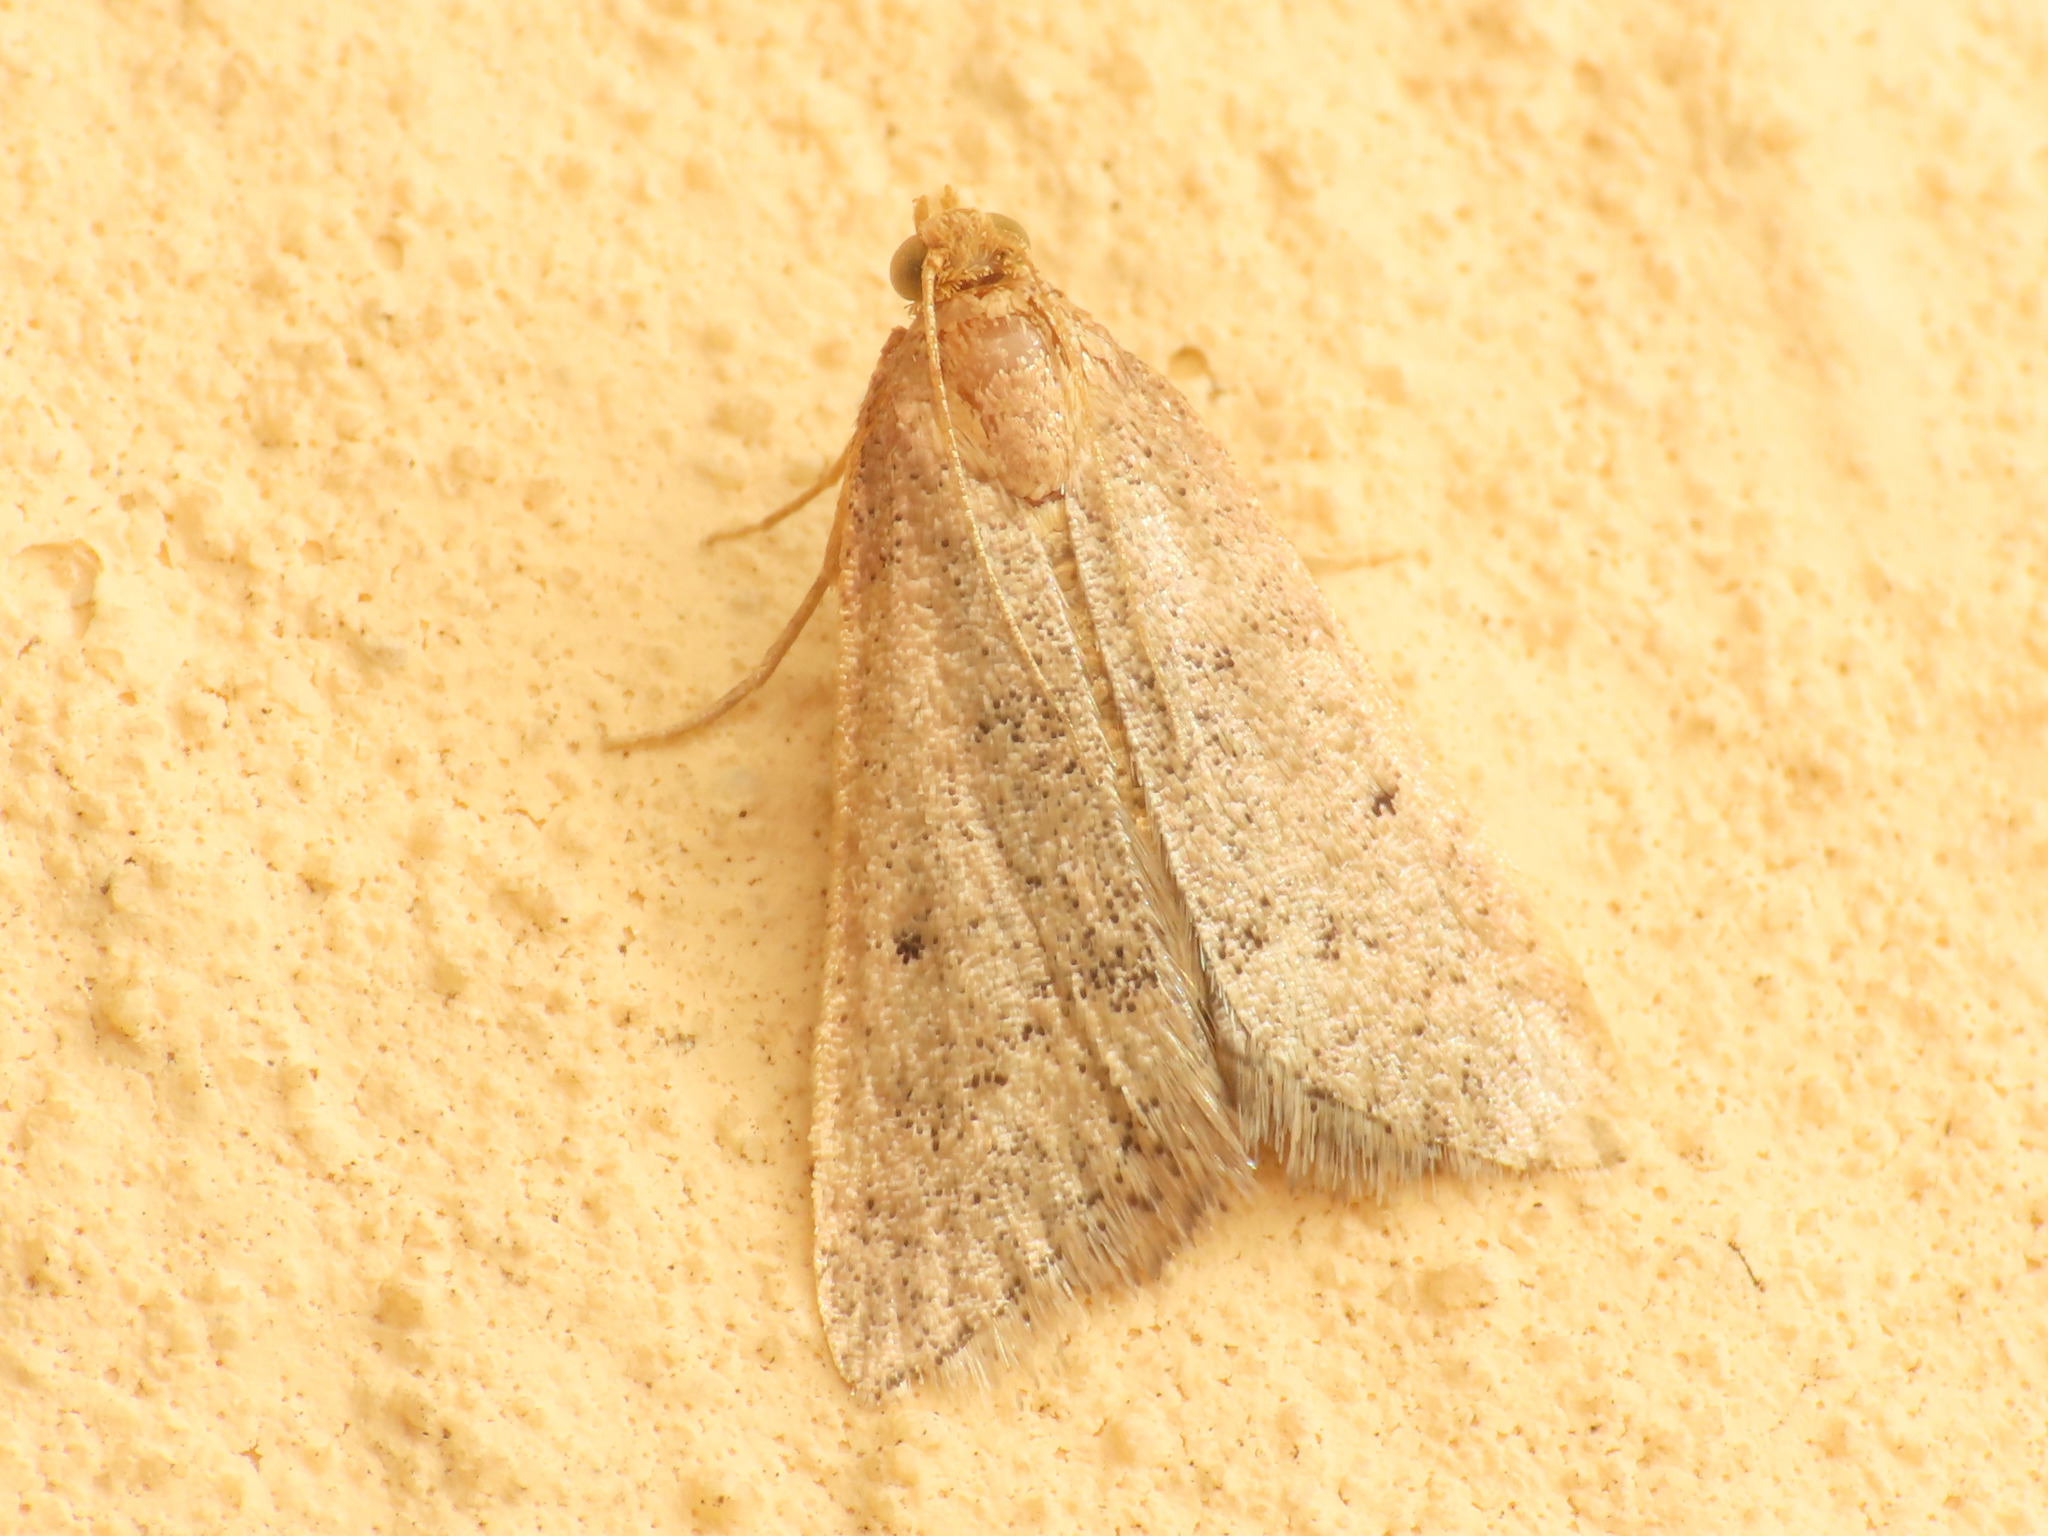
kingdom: Animalia
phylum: Arthropoda
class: Insecta
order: Lepidoptera
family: Pyralidae
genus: Bostra
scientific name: Bostra obsoletalis
